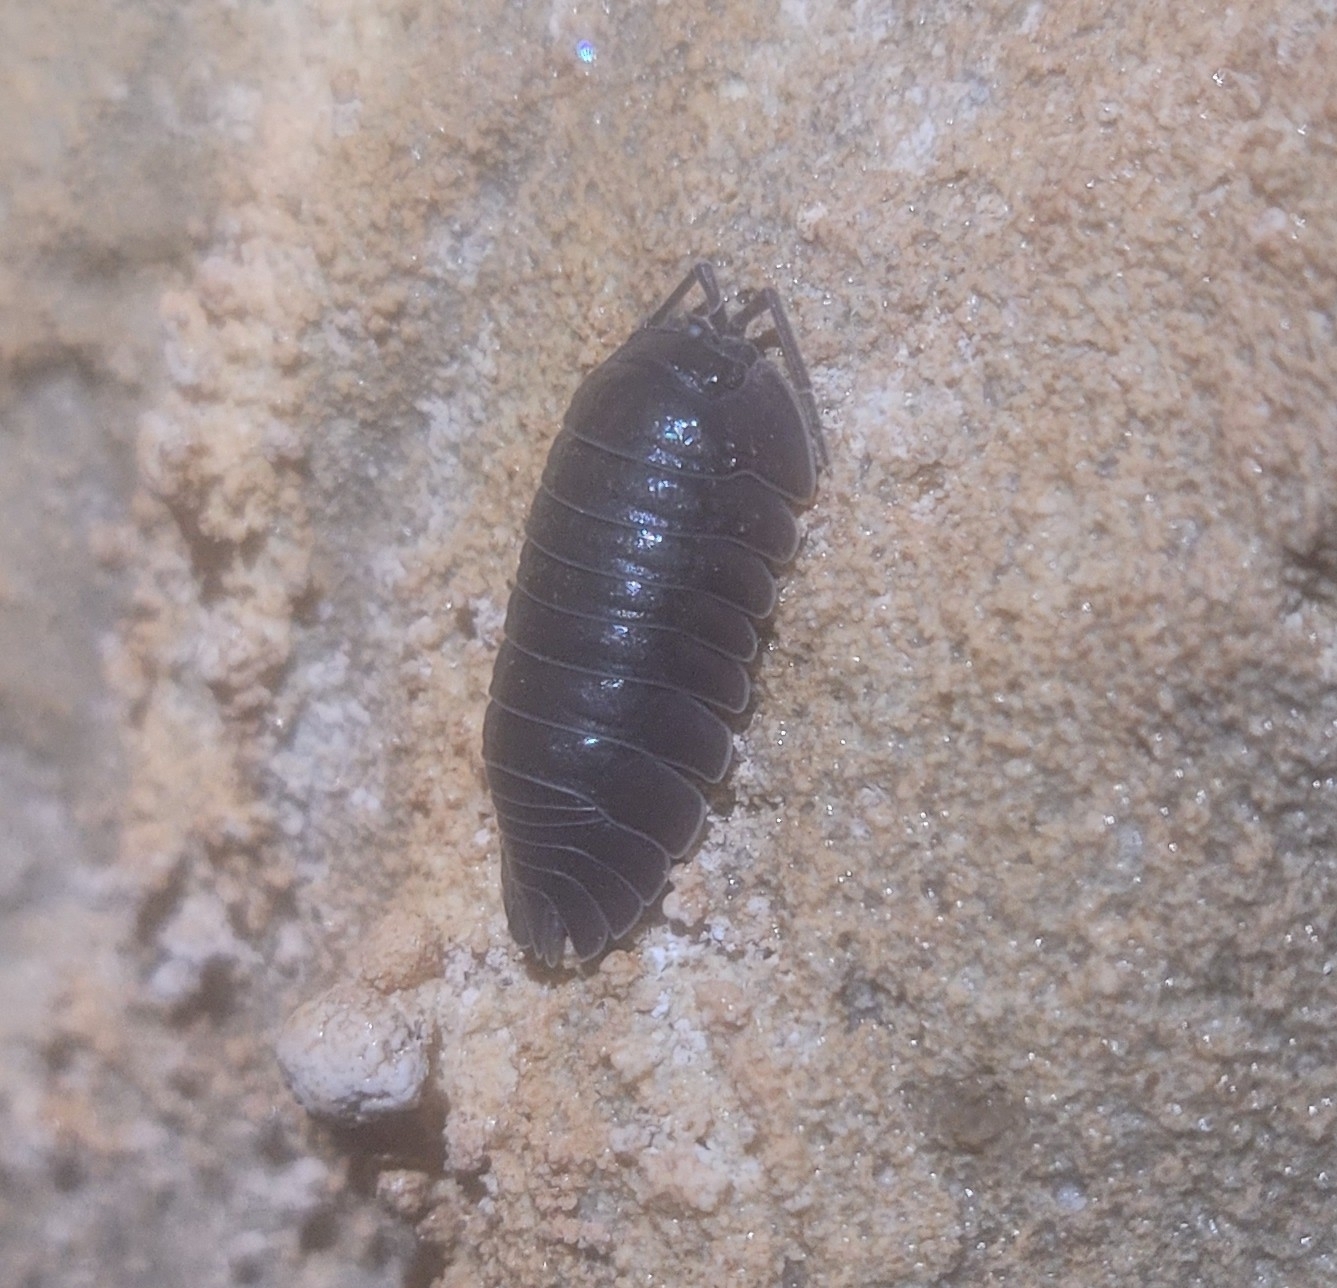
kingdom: Animalia
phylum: Arthropoda
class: Malacostraca
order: Isopoda
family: Armadillidiidae
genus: Armadillidium
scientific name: Armadillidium nasatum
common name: Isopod
